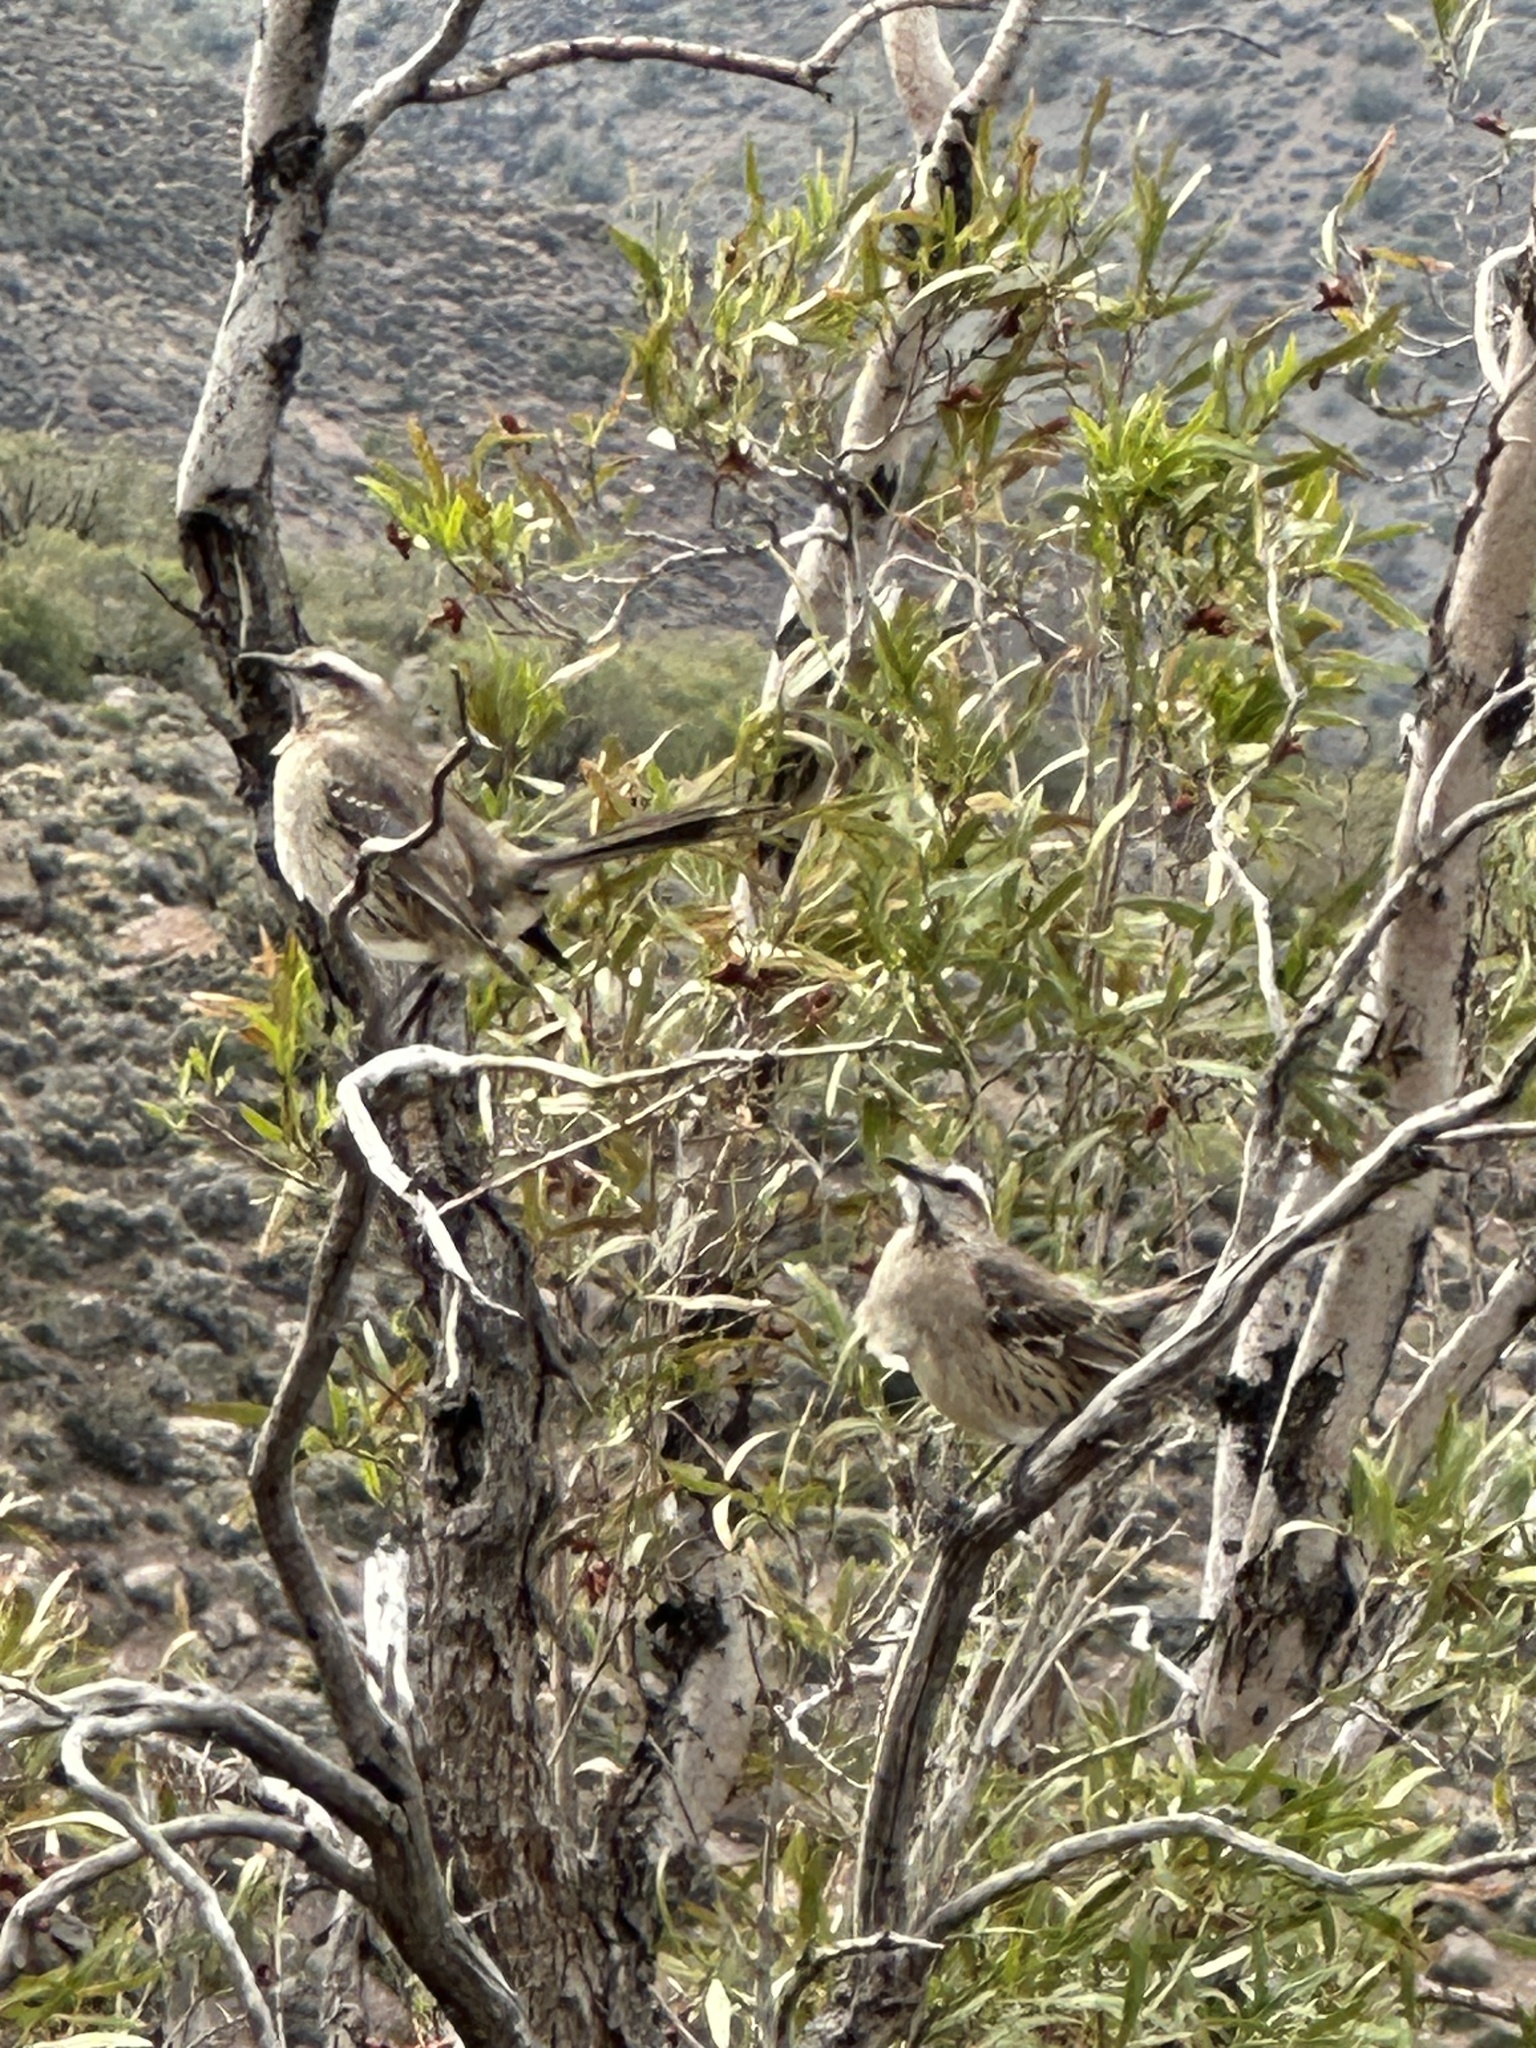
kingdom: Animalia
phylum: Chordata
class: Aves
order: Passeriformes
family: Mimidae
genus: Mimus
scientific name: Mimus thenca
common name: Chilean mockingbird
